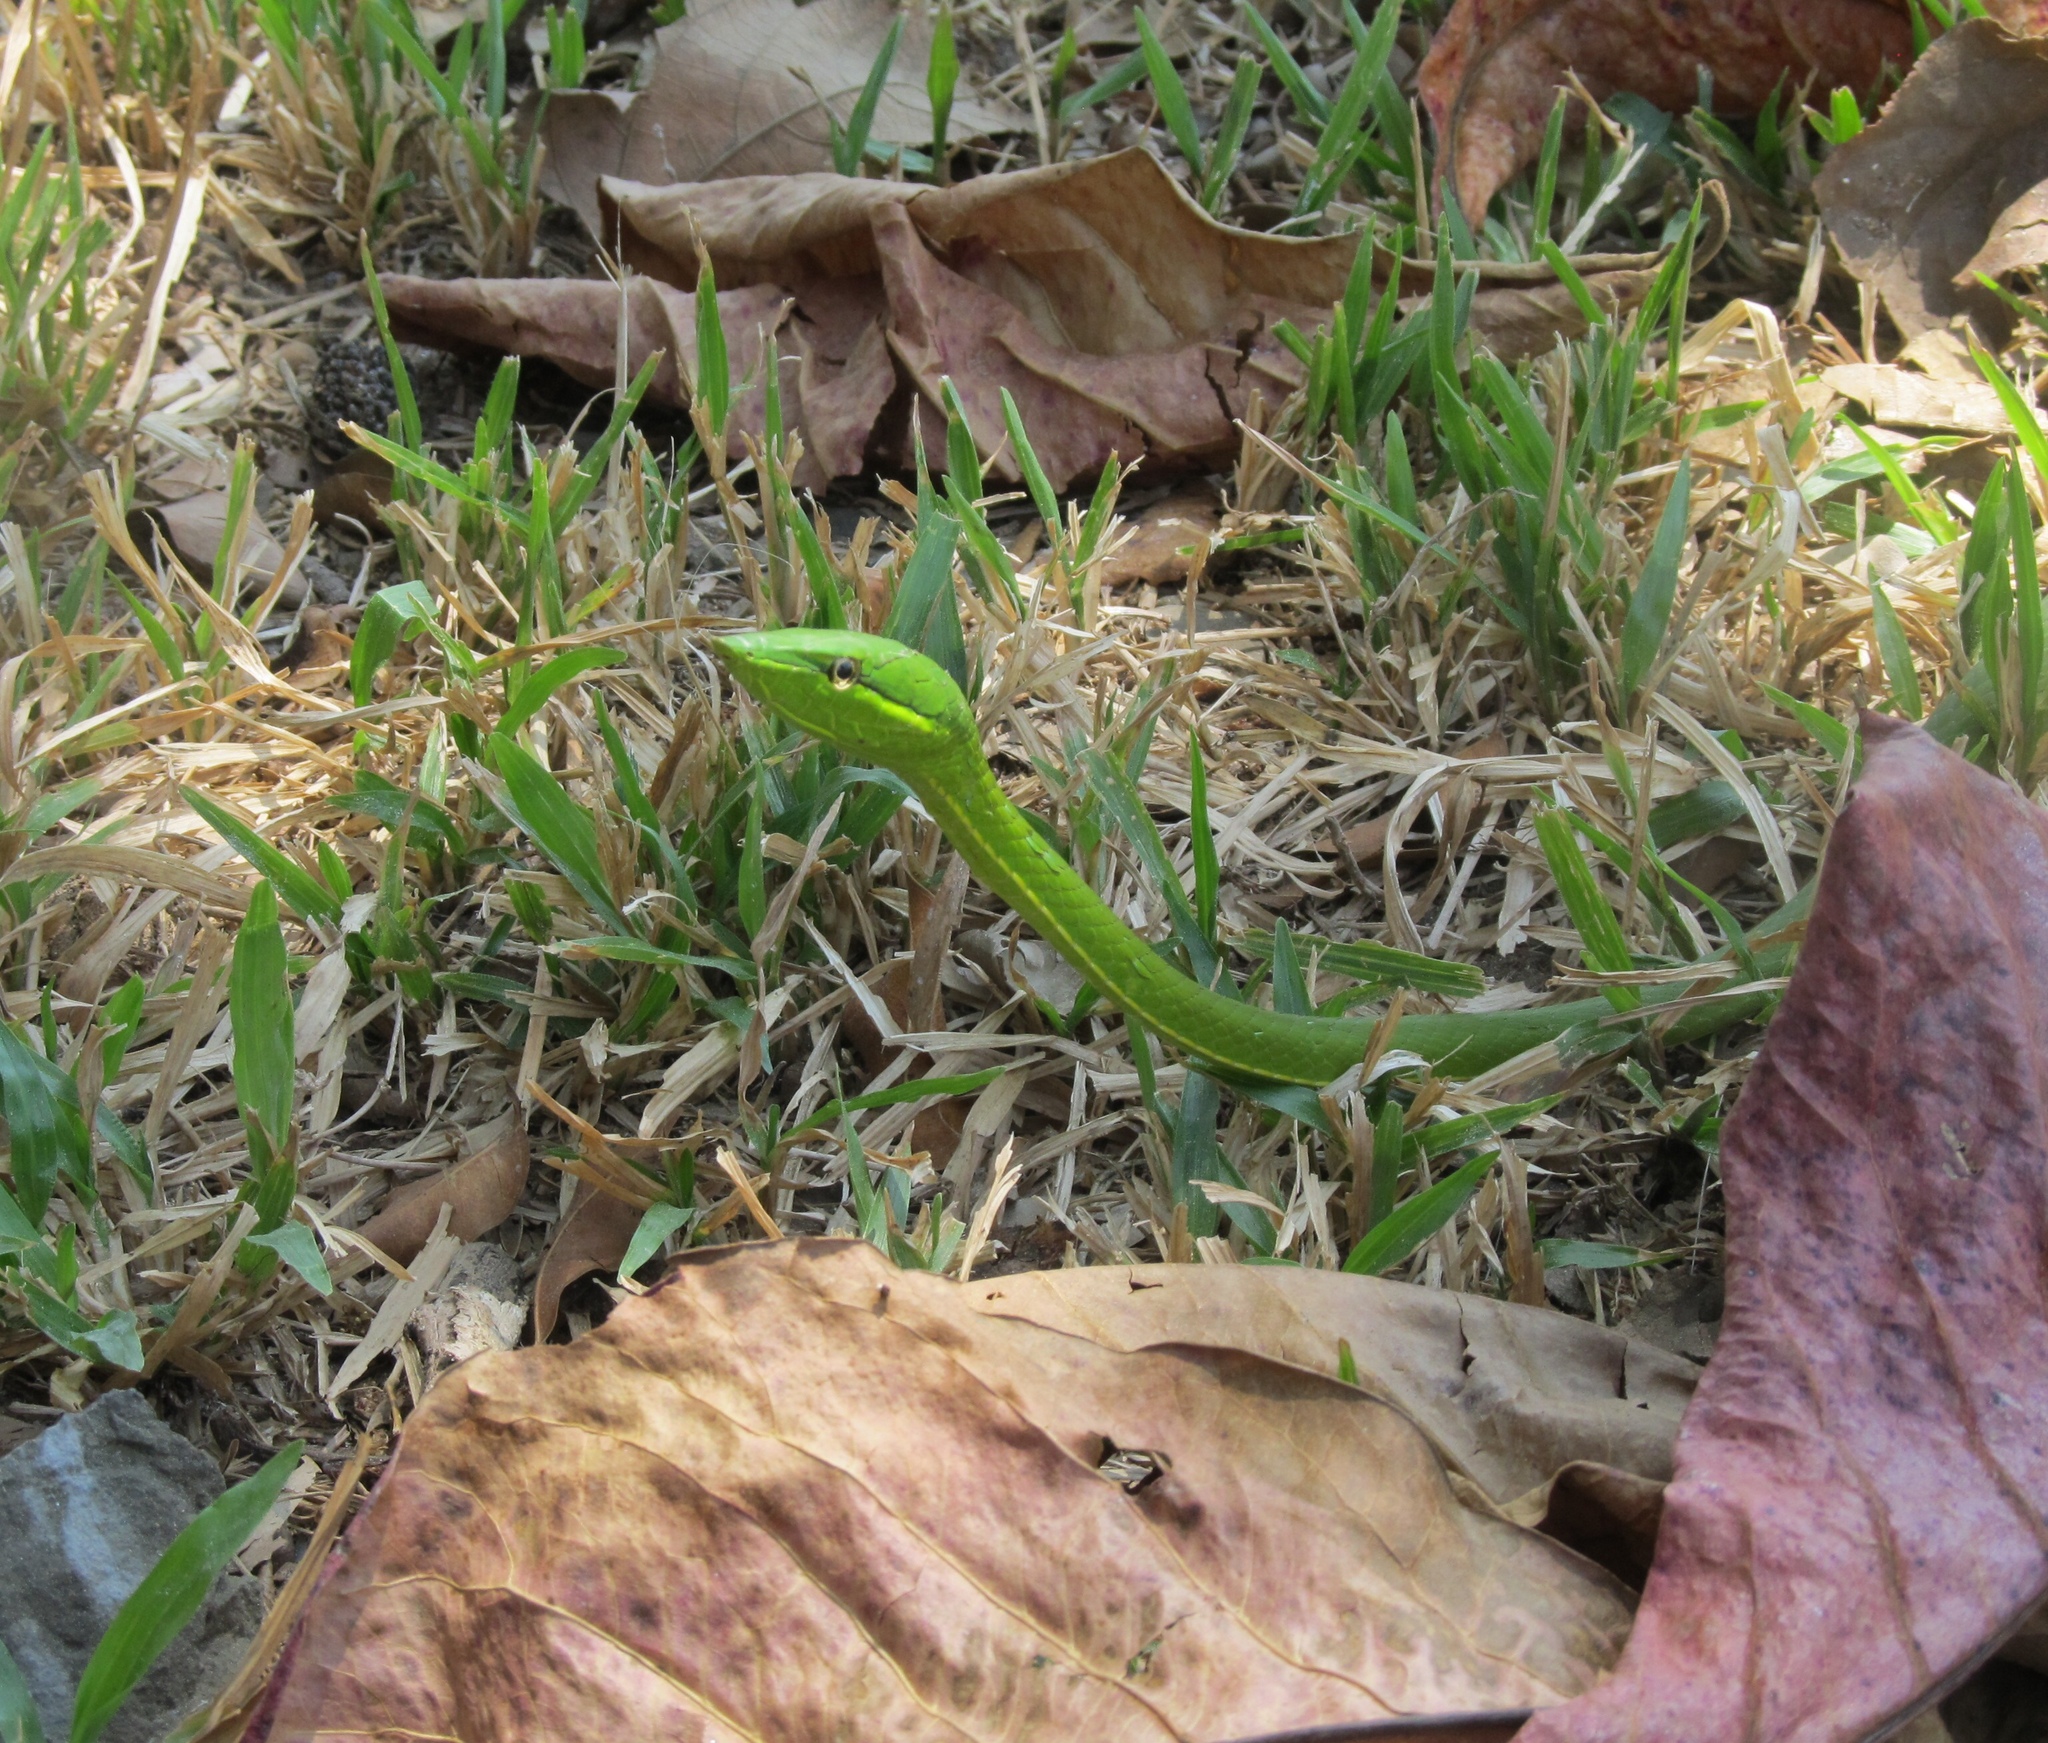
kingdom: Animalia
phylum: Chordata
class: Squamata
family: Colubridae
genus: Oxybelis
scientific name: Oxybelis fulgidus
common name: Green vine snake
